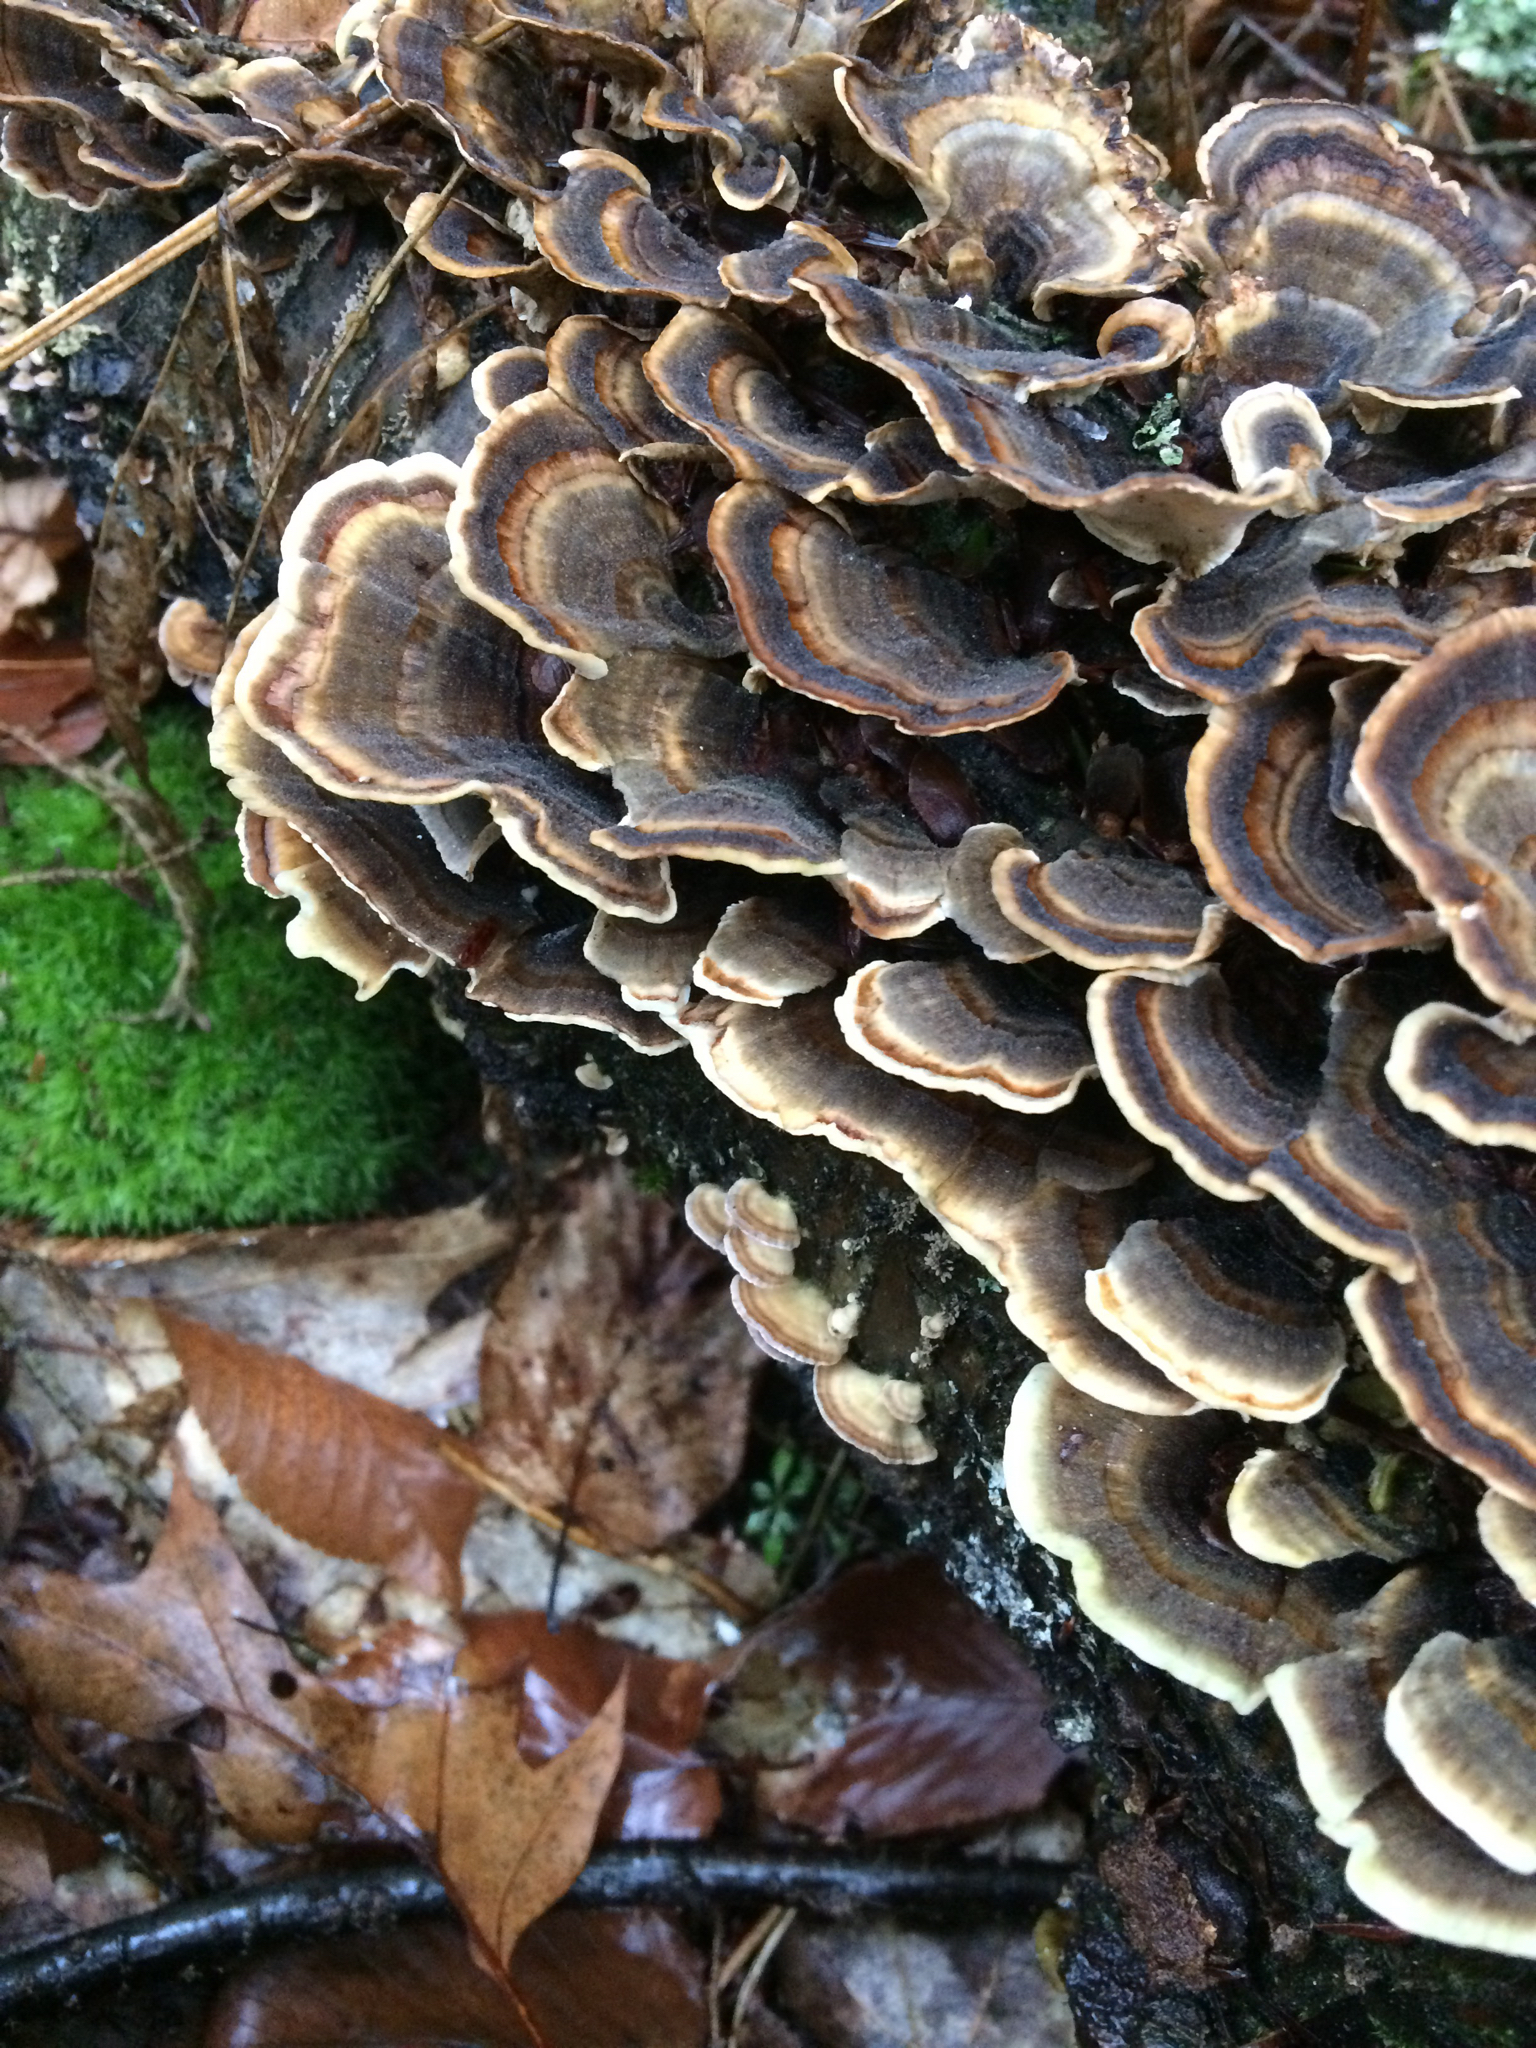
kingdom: Fungi
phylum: Basidiomycota
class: Agaricomycetes
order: Polyporales
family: Polyporaceae
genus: Trametes
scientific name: Trametes versicolor
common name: Turkeytail
